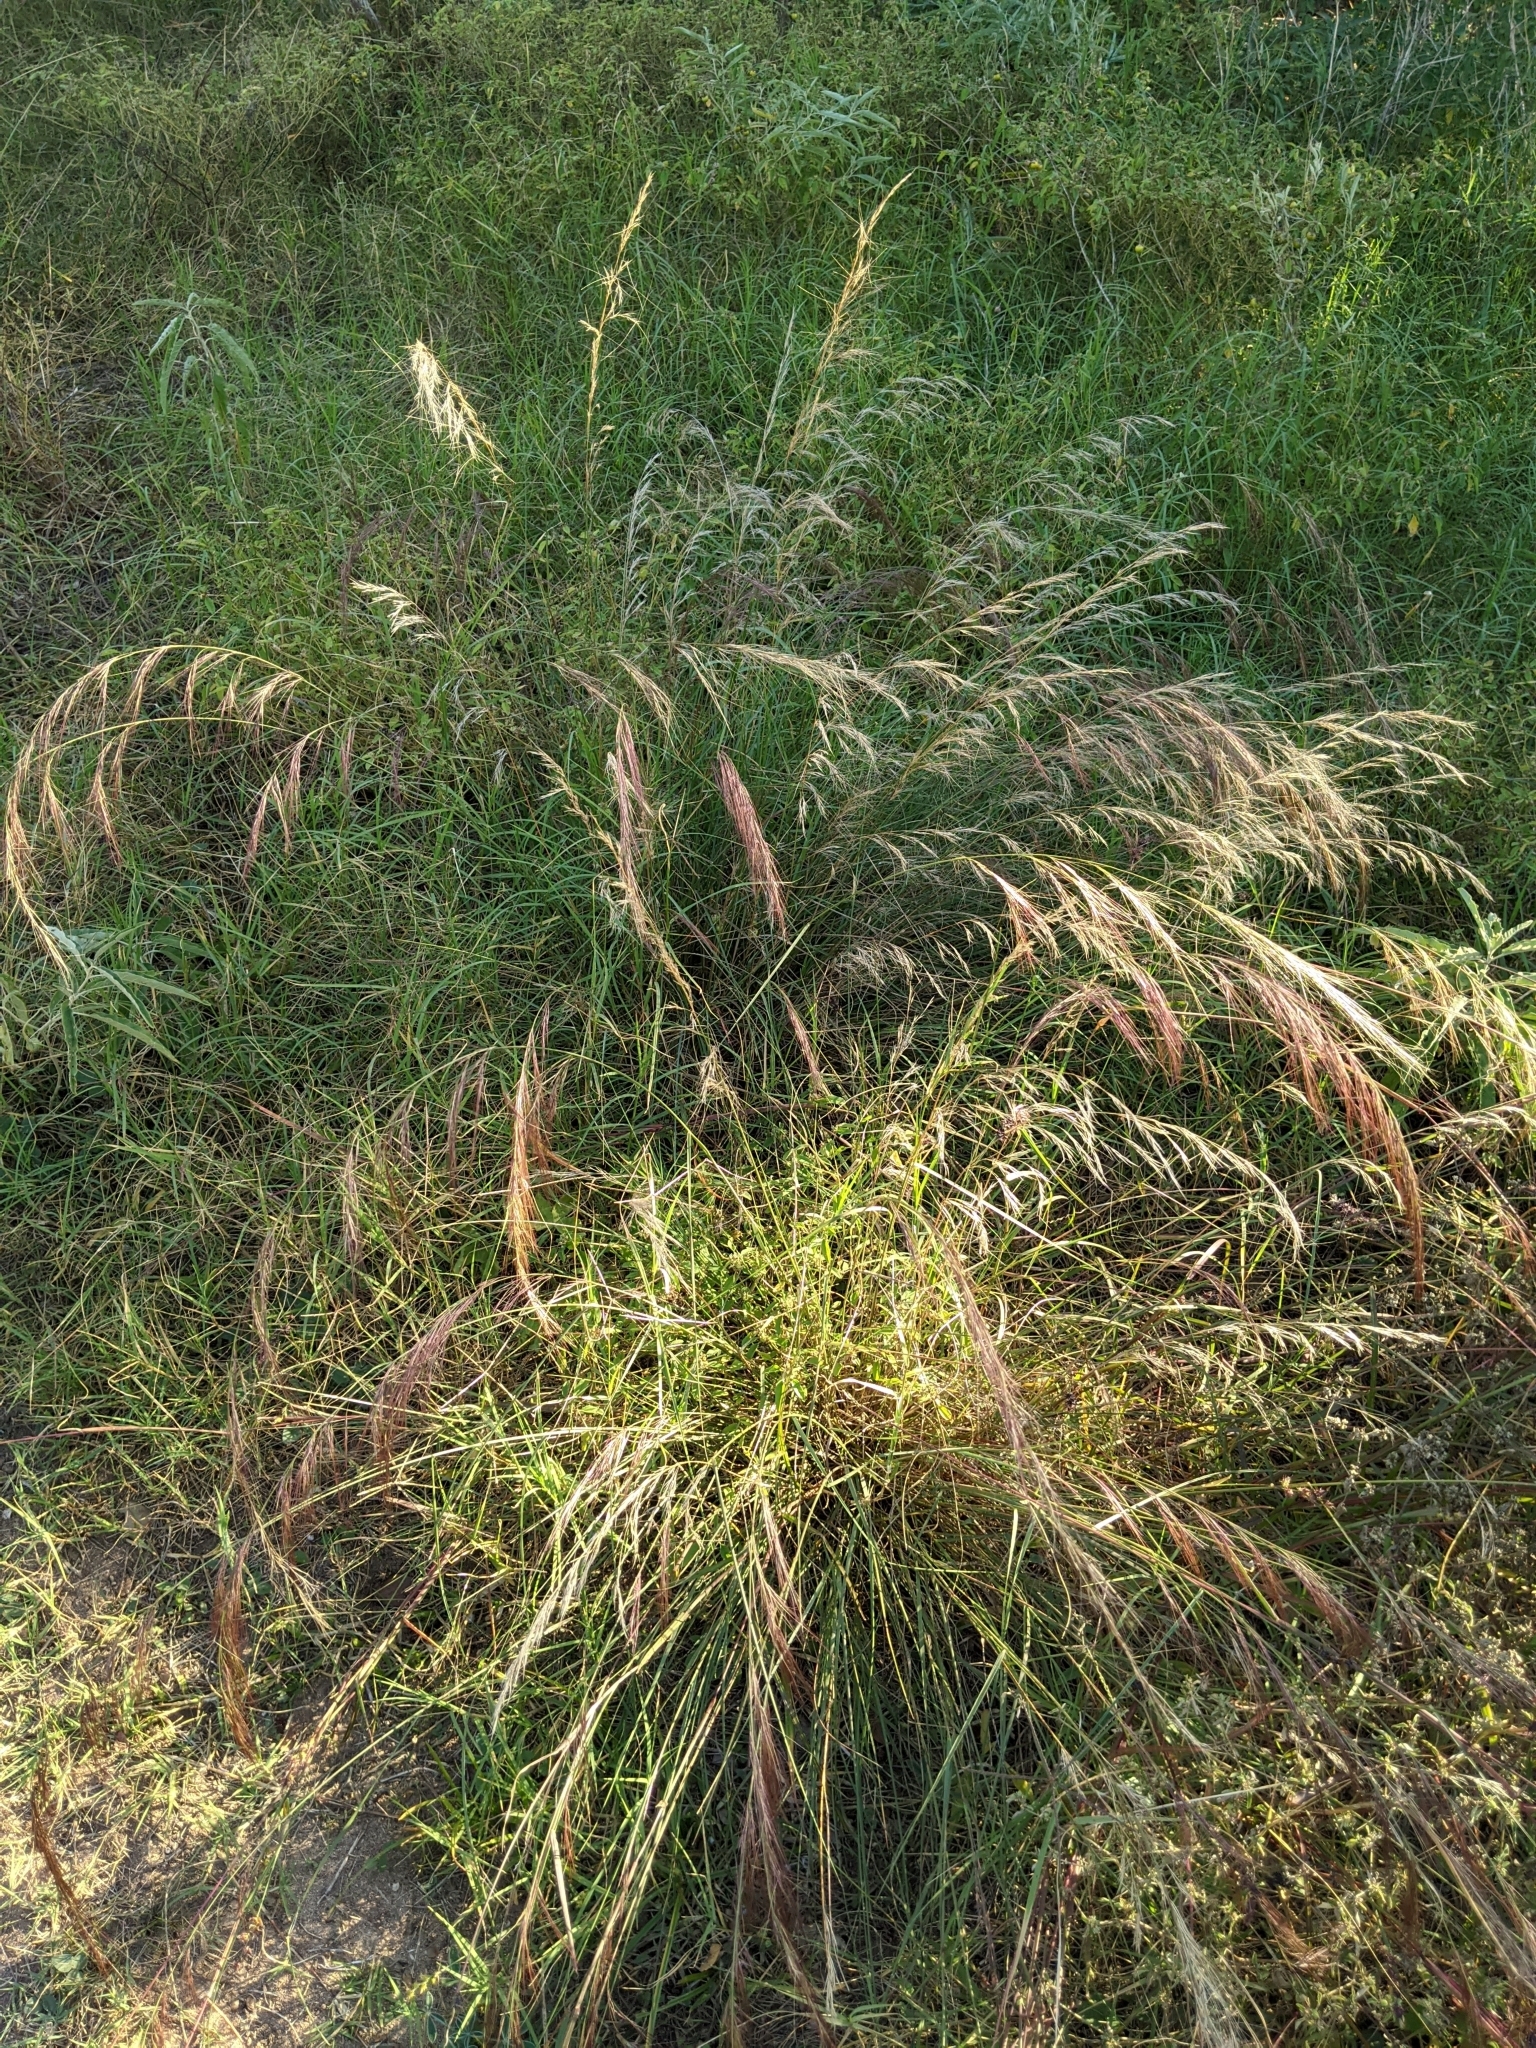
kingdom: Plantae
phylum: Tracheophyta
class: Liliopsida
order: Poales
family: Poaceae
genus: Aristida
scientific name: Aristida purpurea
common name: Purple threeawn
